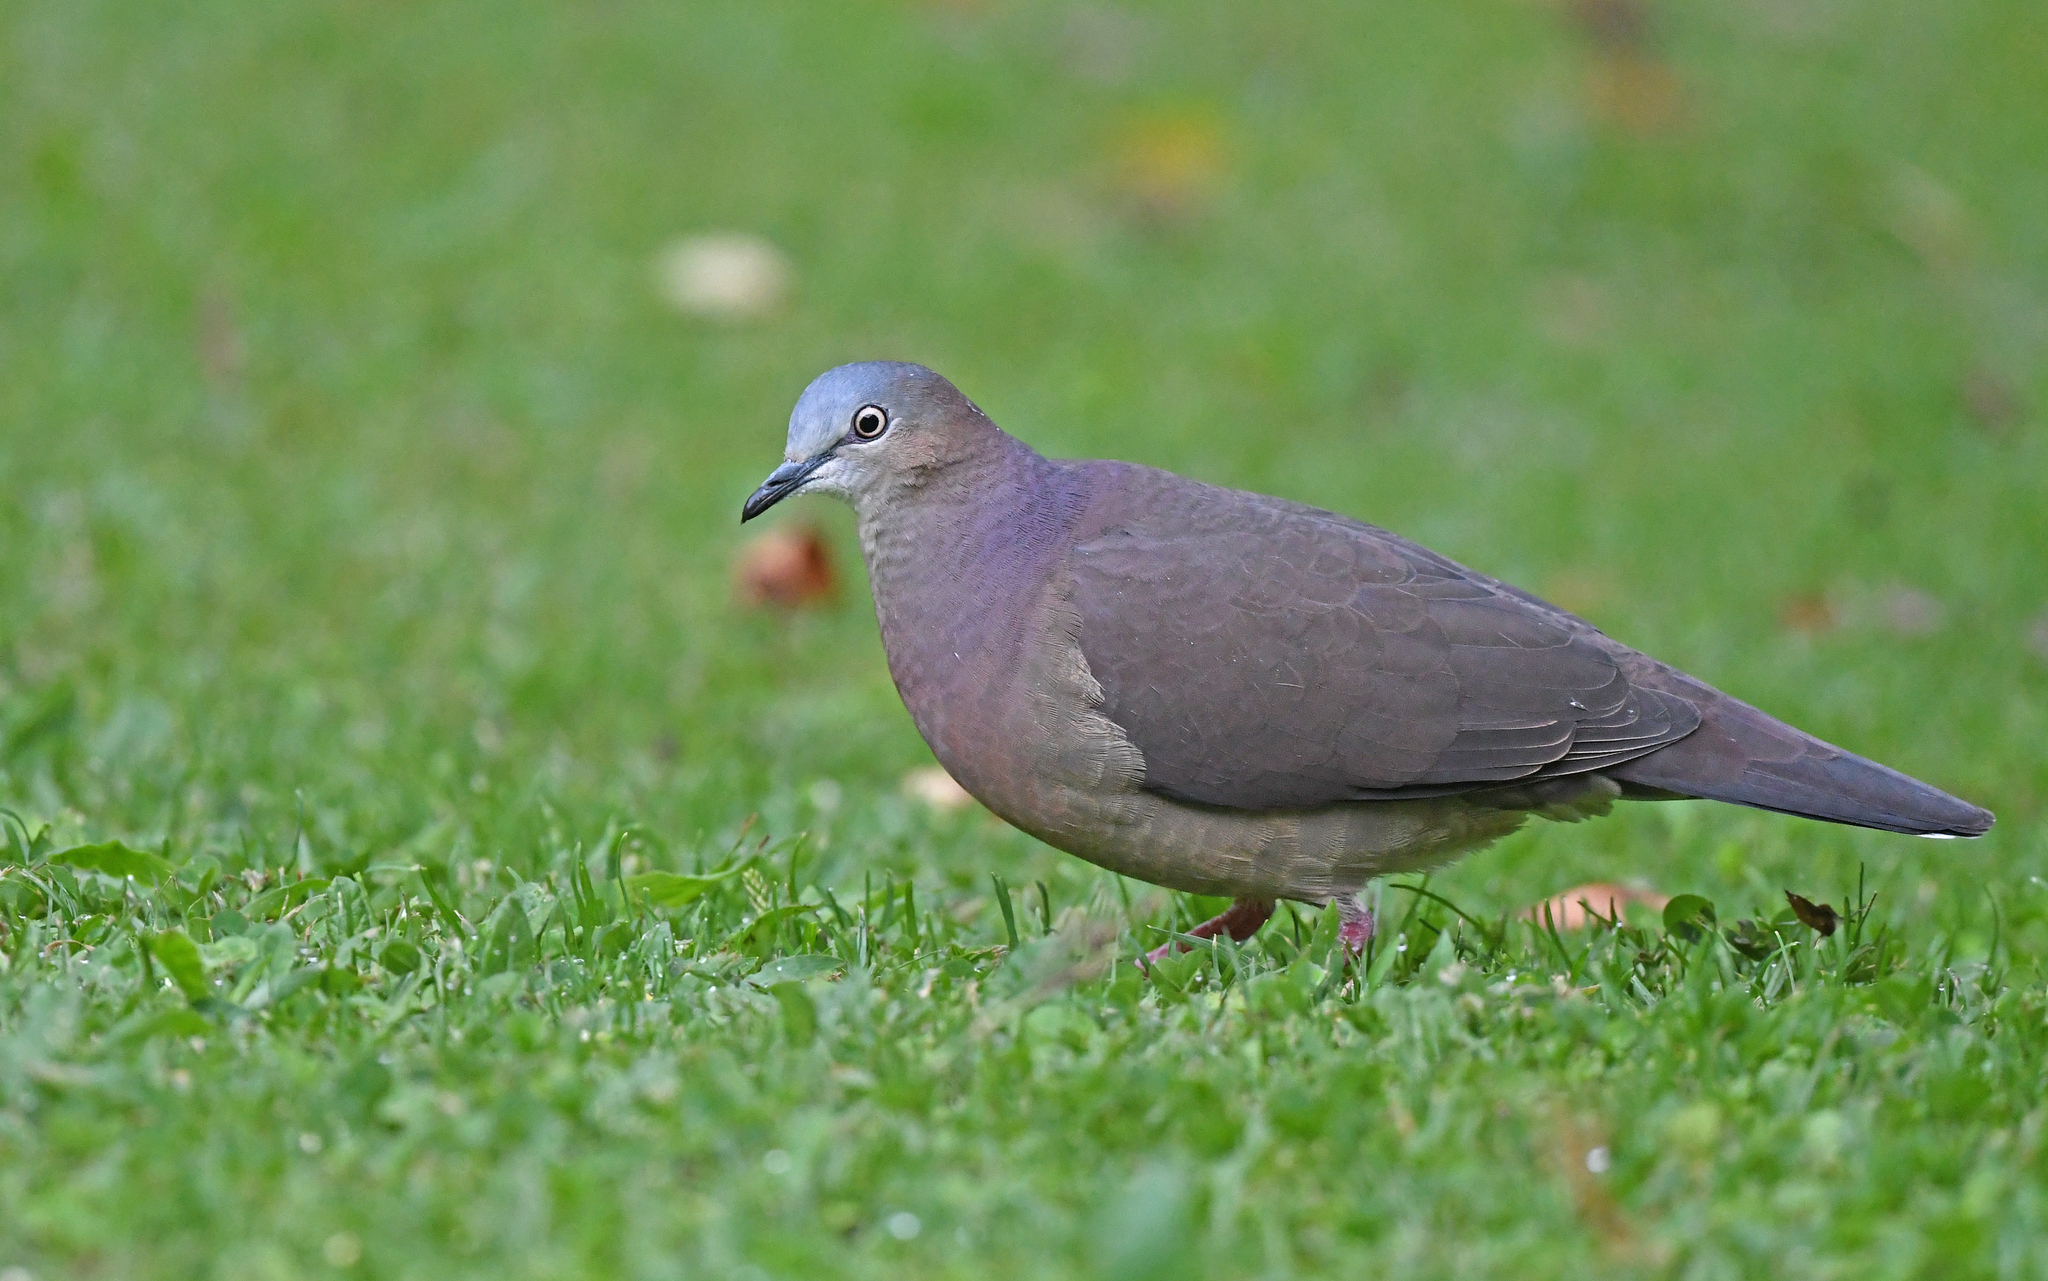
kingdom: Animalia
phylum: Chordata
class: Aves
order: Columbiformes
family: Columbidae
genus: Leptotila
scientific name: Leptotila conoveri
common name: Tolima dove
